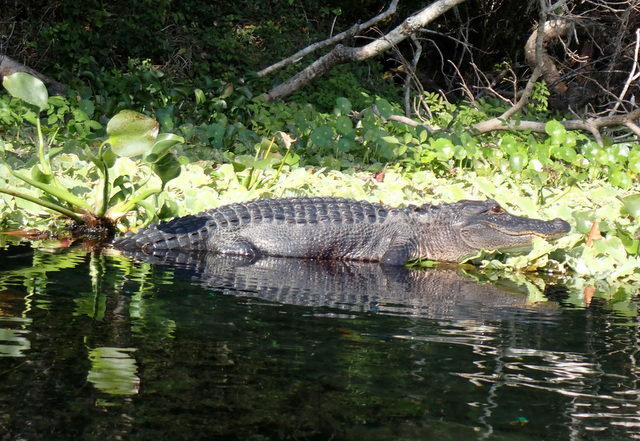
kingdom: Animalia
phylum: Chordata
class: Crocodylia
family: Alligatoridae
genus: Alligator
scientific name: Alligator mississippiensis
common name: American alligator
